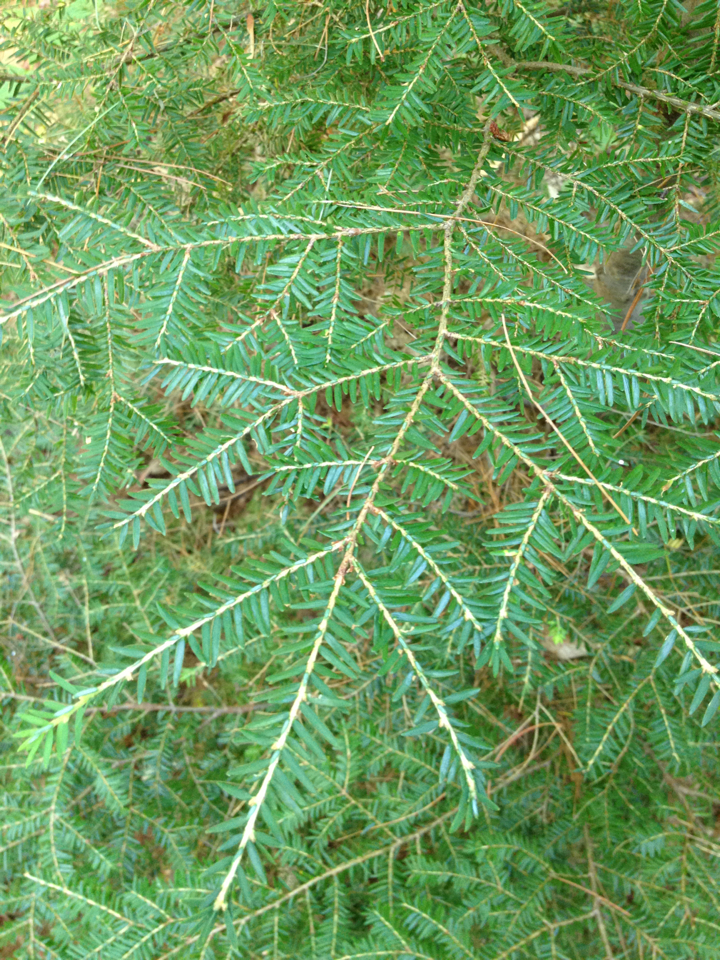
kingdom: Plantae
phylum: Tracheophyta
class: Pinopsida
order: Pinales
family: Pinaceae
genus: Tsuga
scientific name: Tsuga canadensis
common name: Eastern hemlock
